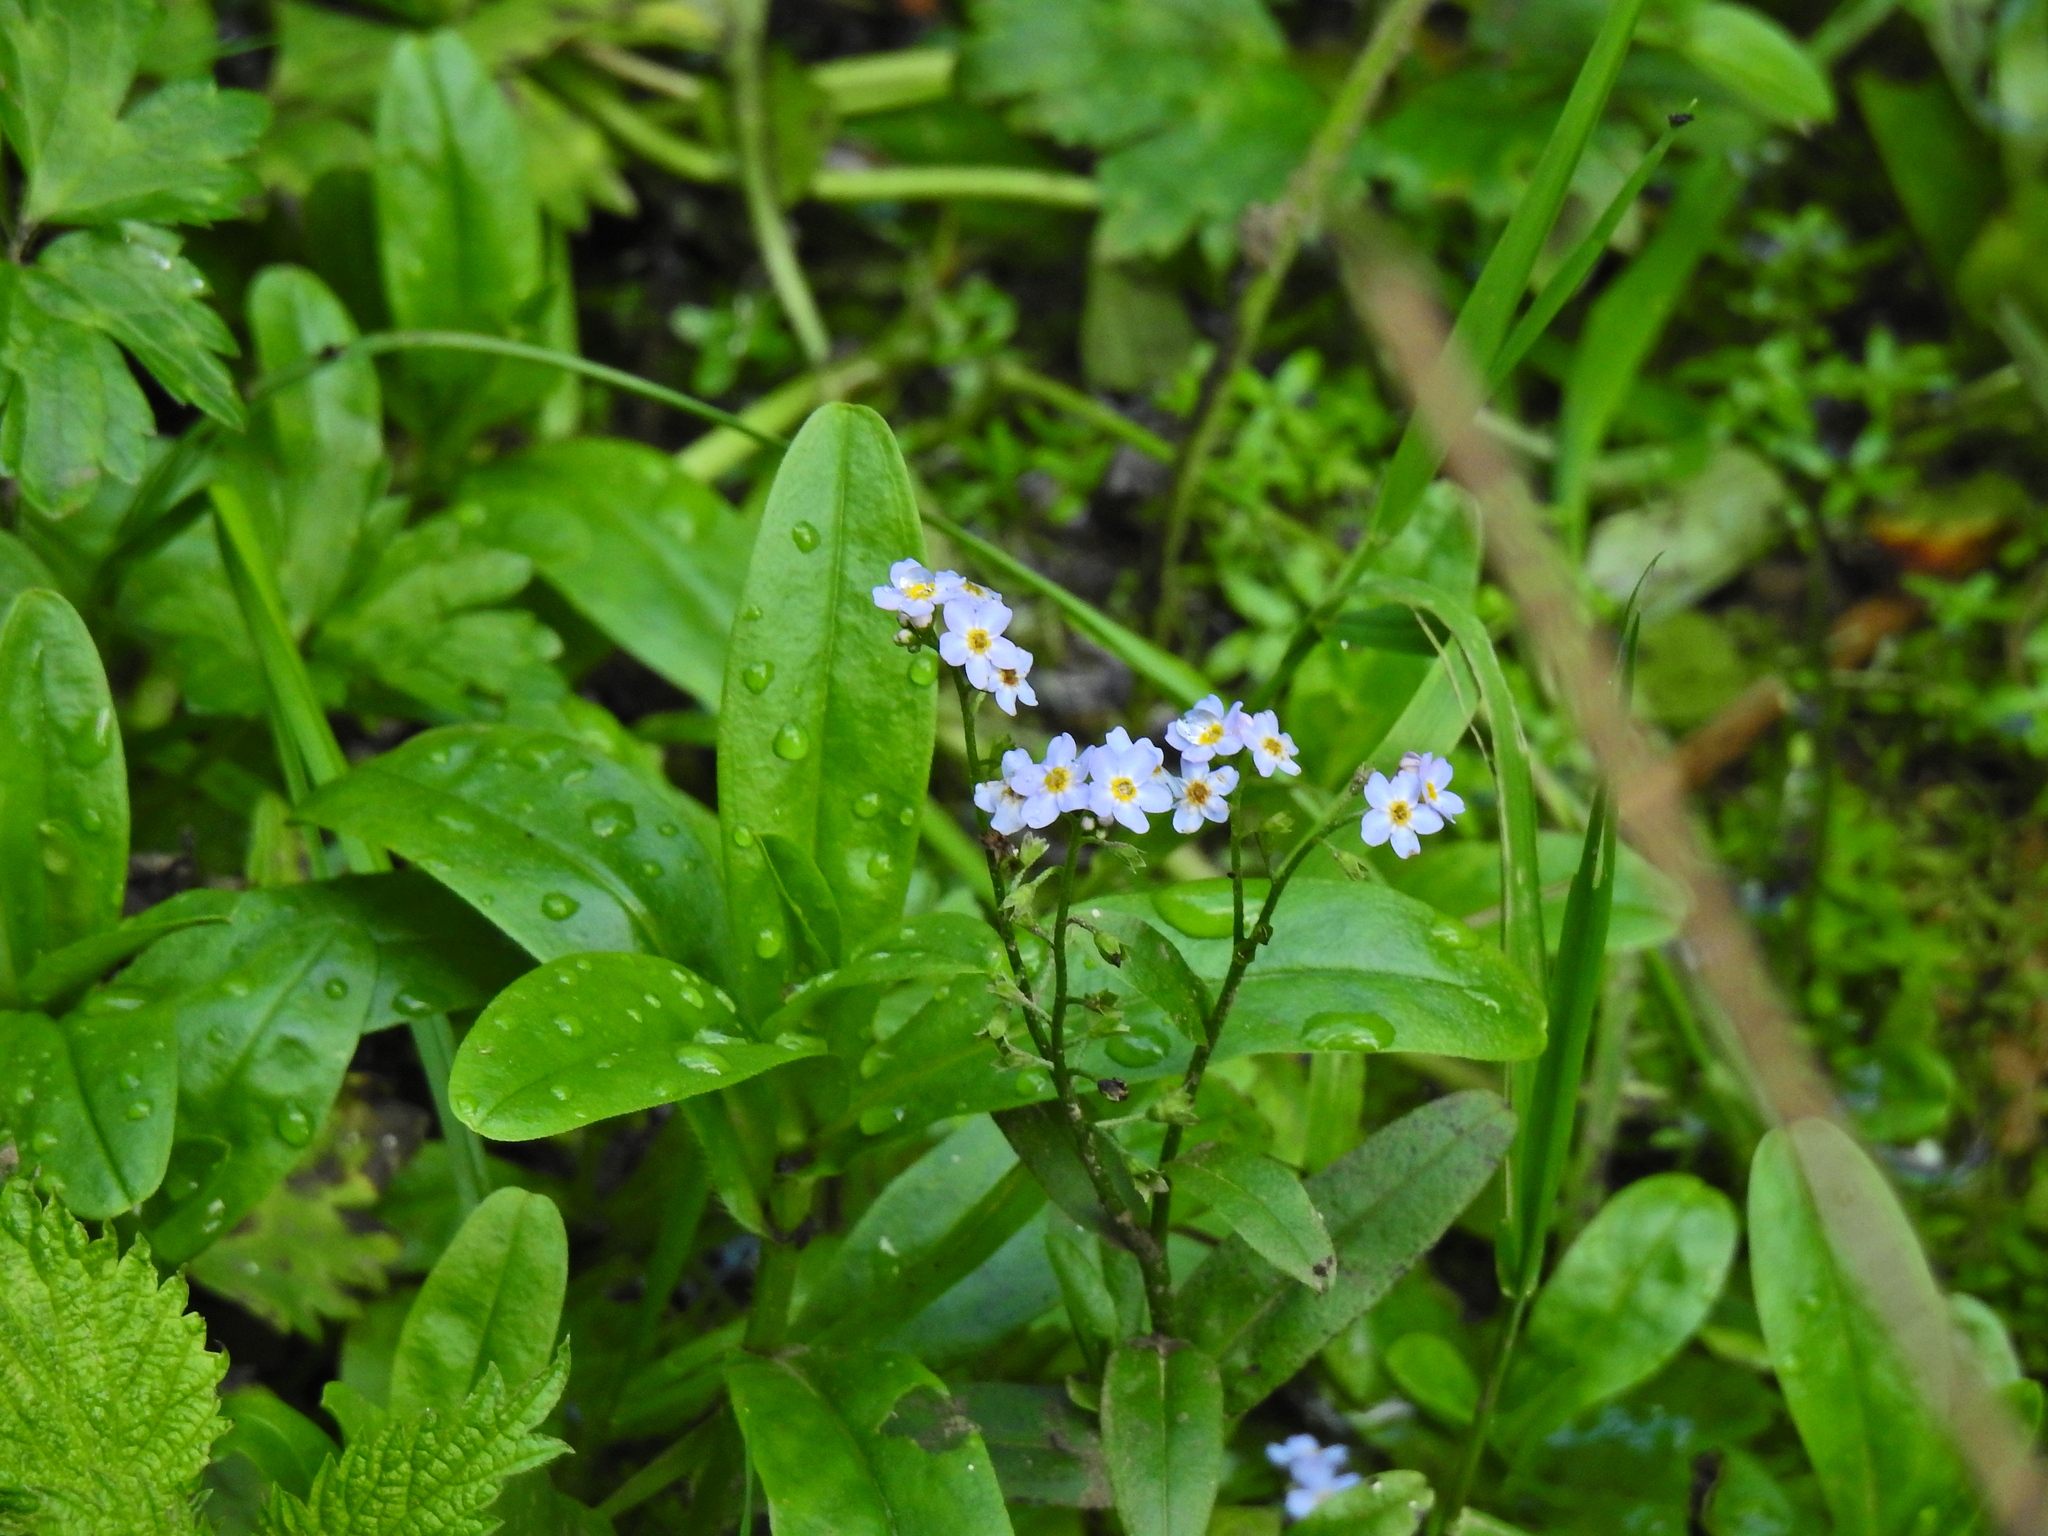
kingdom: Plantae
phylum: Tracheophyta
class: Magnoliopsida
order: Boraginales
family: Boraginaceae
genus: Myosotis
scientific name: Myosotis scorpioides
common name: Water forget-me-not
